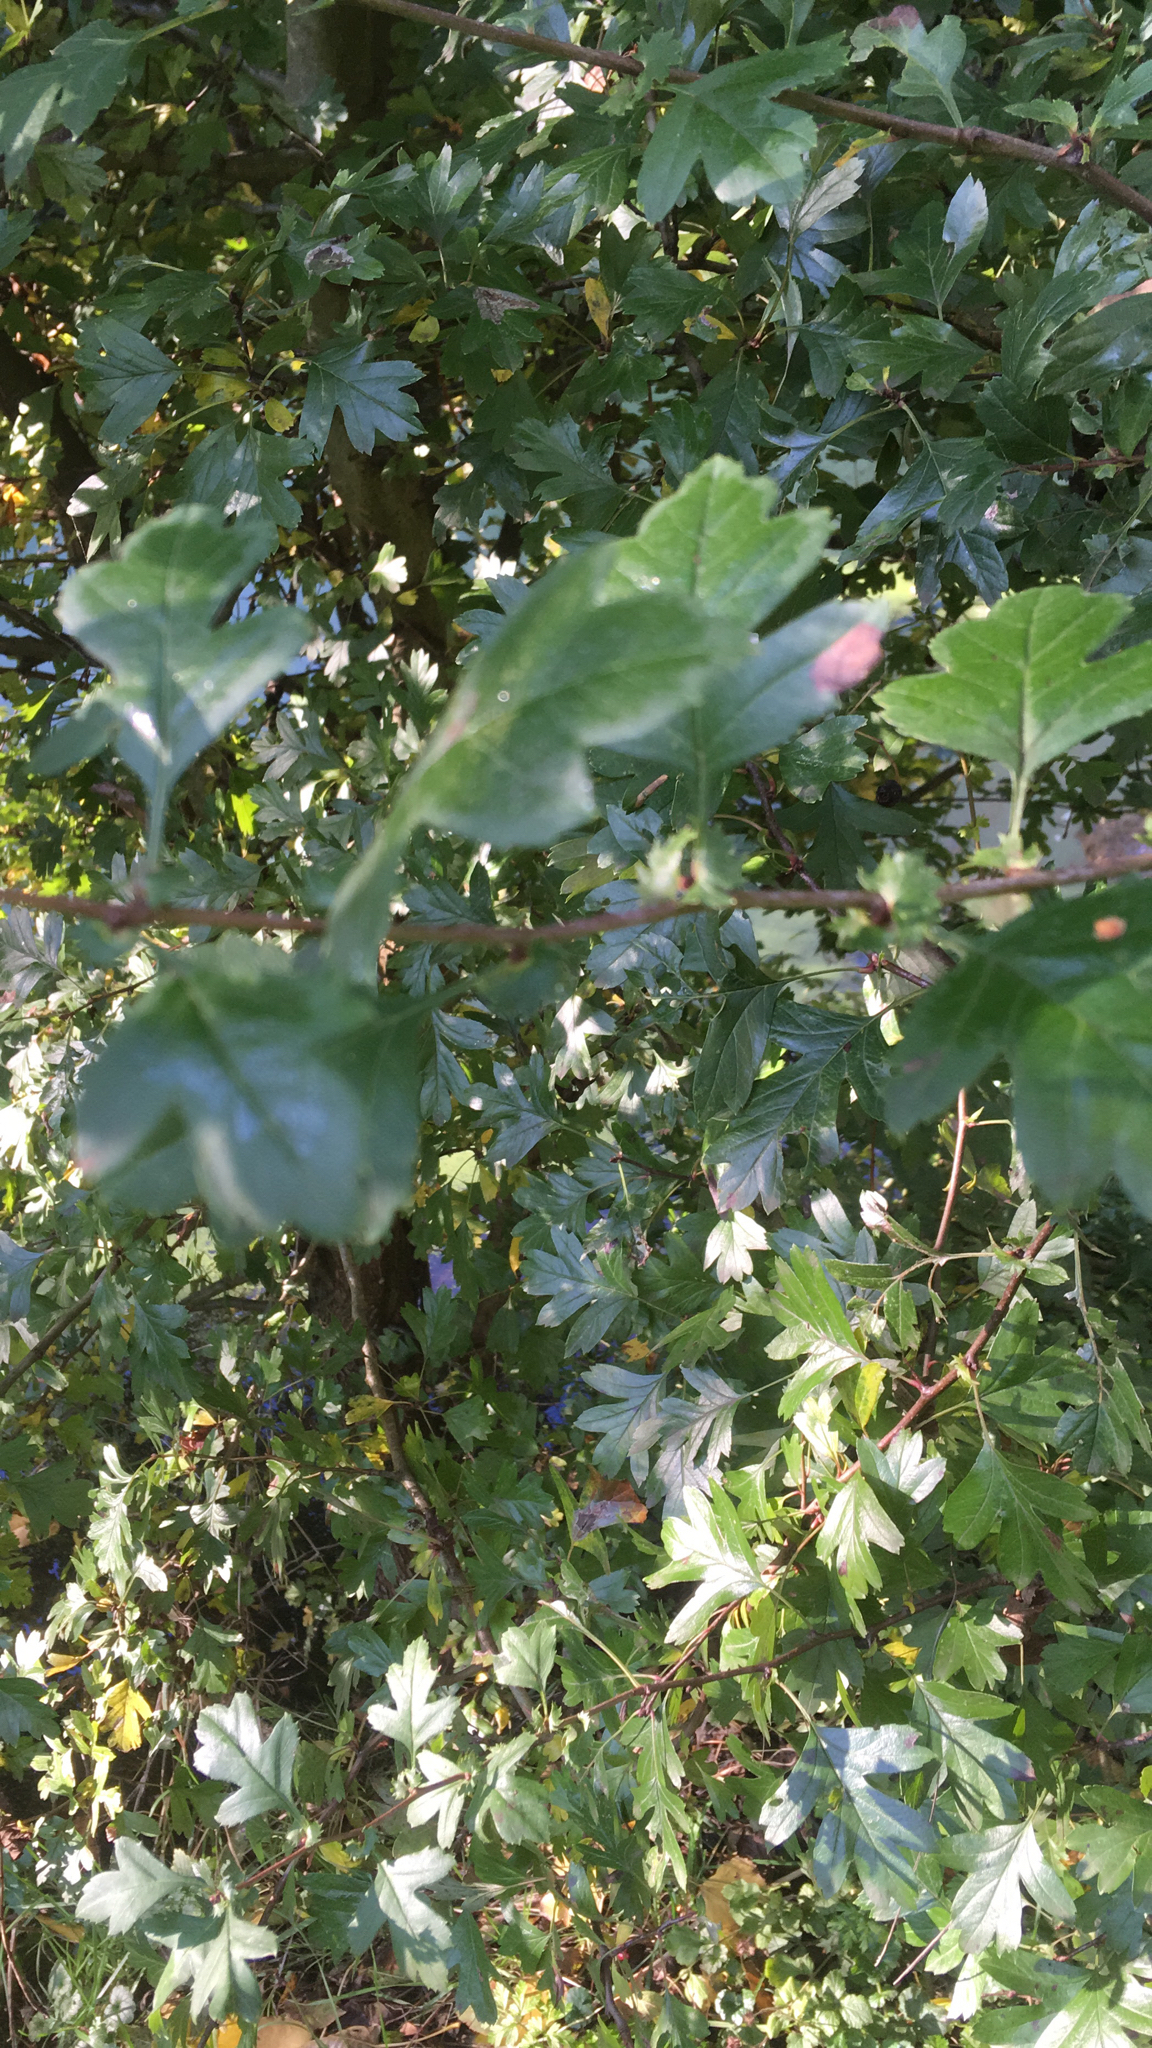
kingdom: Plantae
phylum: Tracheophyta
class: Magnoliopsida
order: Rosales
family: Rosaceae
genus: Crataegus
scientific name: Crataegus monogyna
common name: Hawthorn
